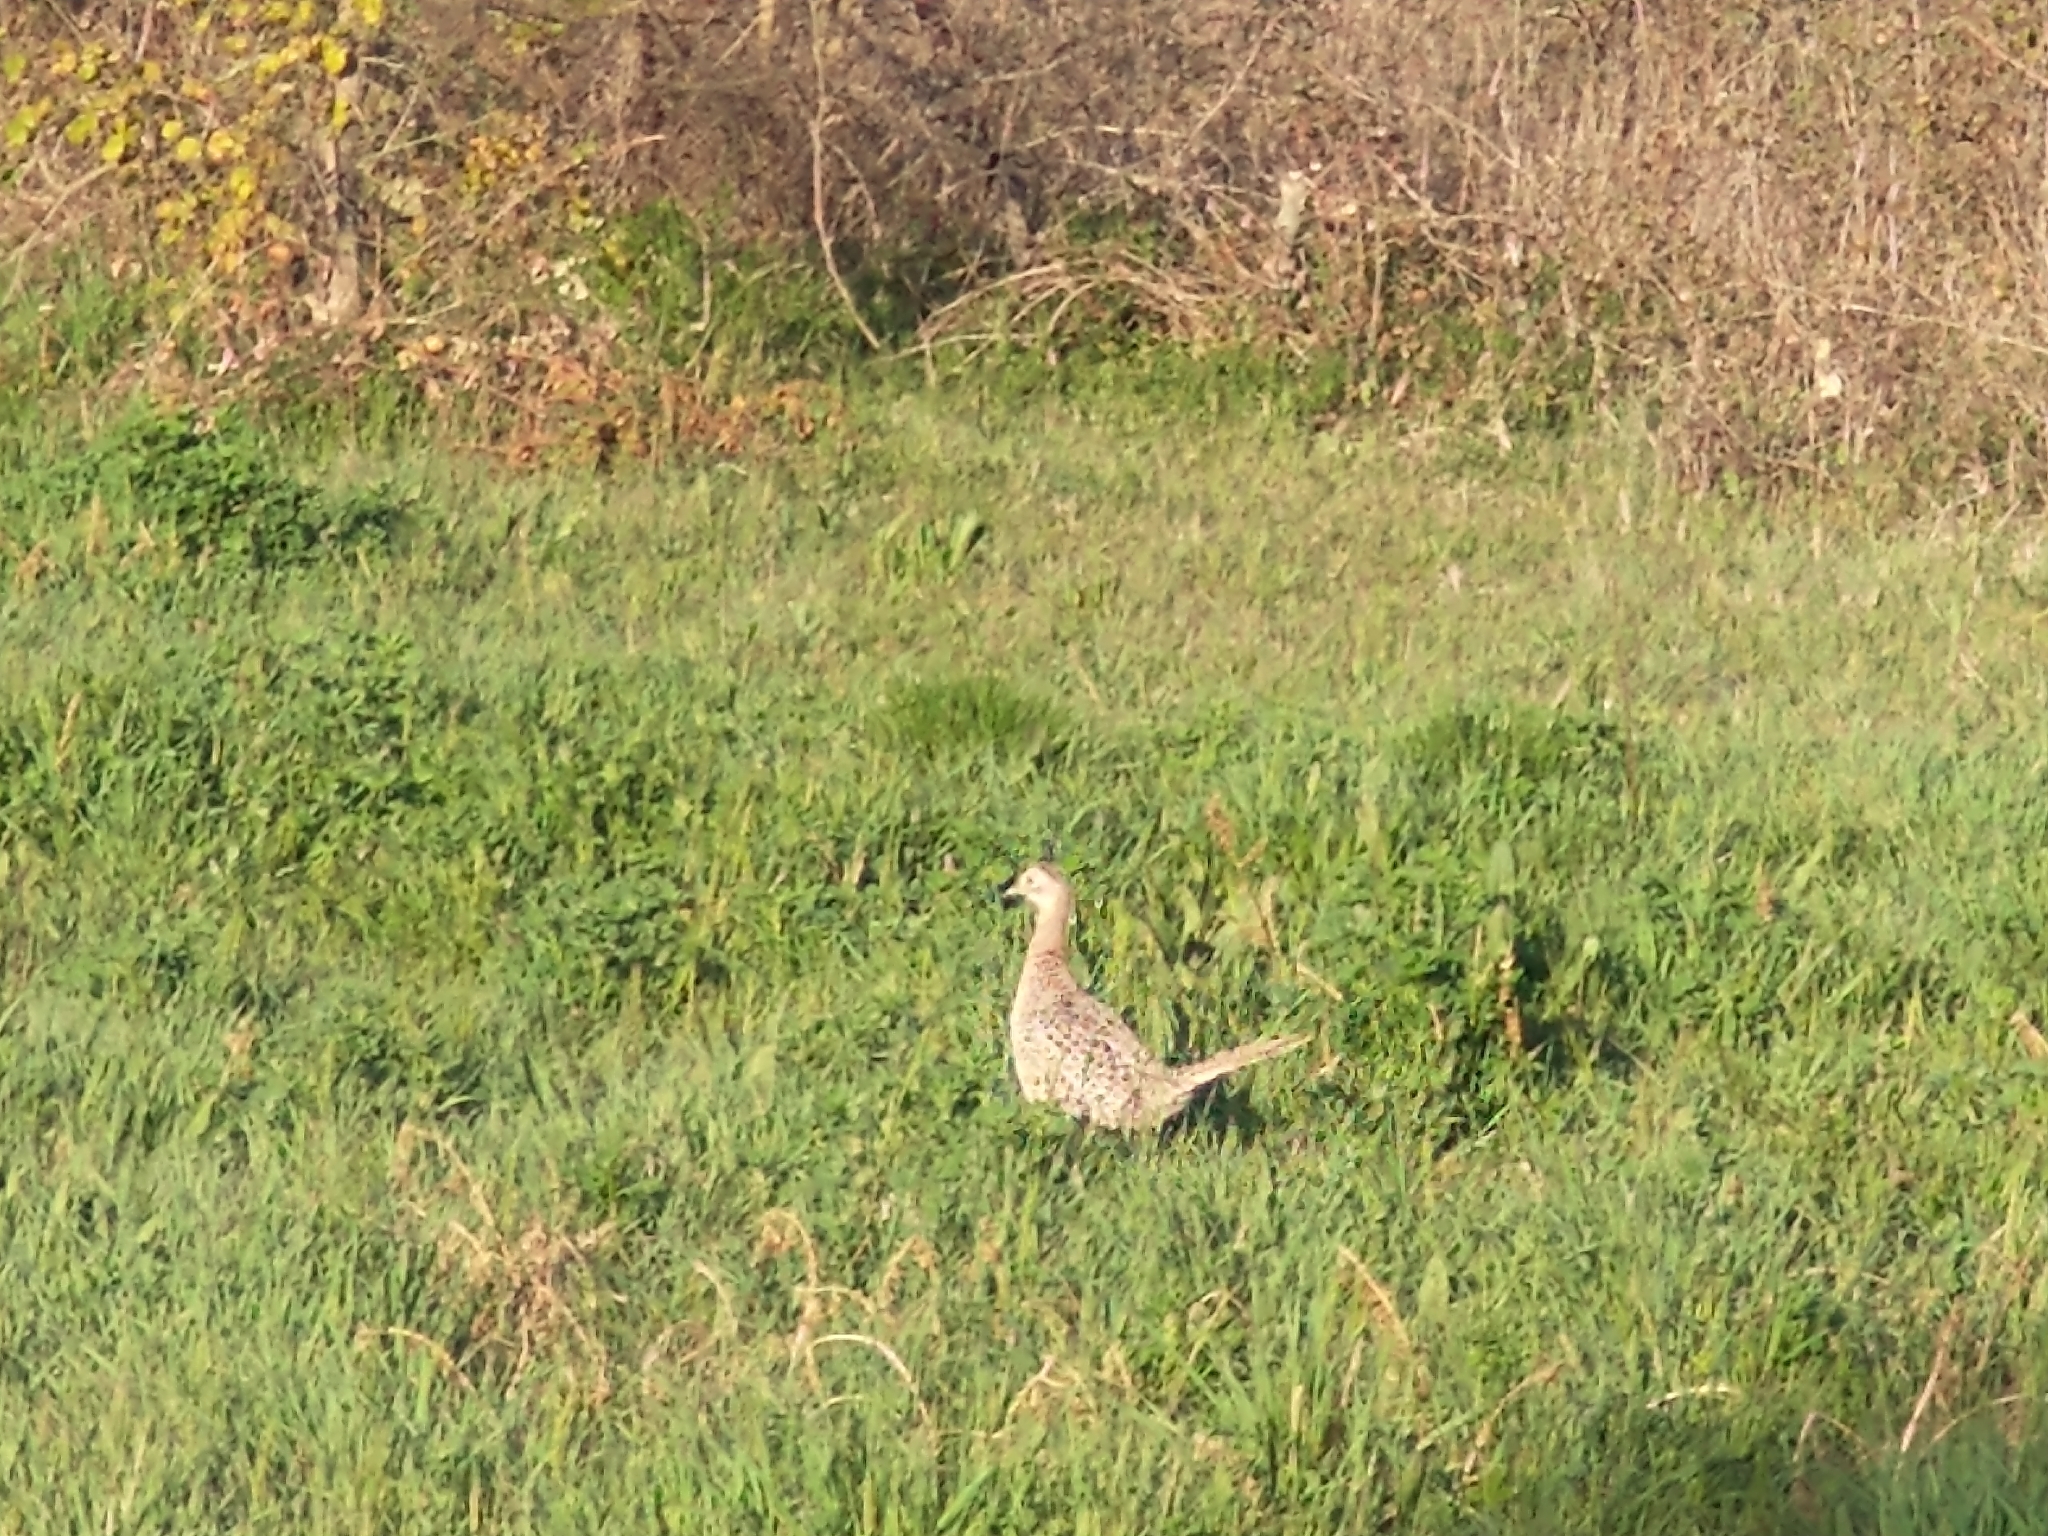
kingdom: Animalia
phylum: Chordata
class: Aves
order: Galliformes
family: Phasianidae
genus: Phasianus
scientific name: Phasianus colchicus
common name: Common pheasant
